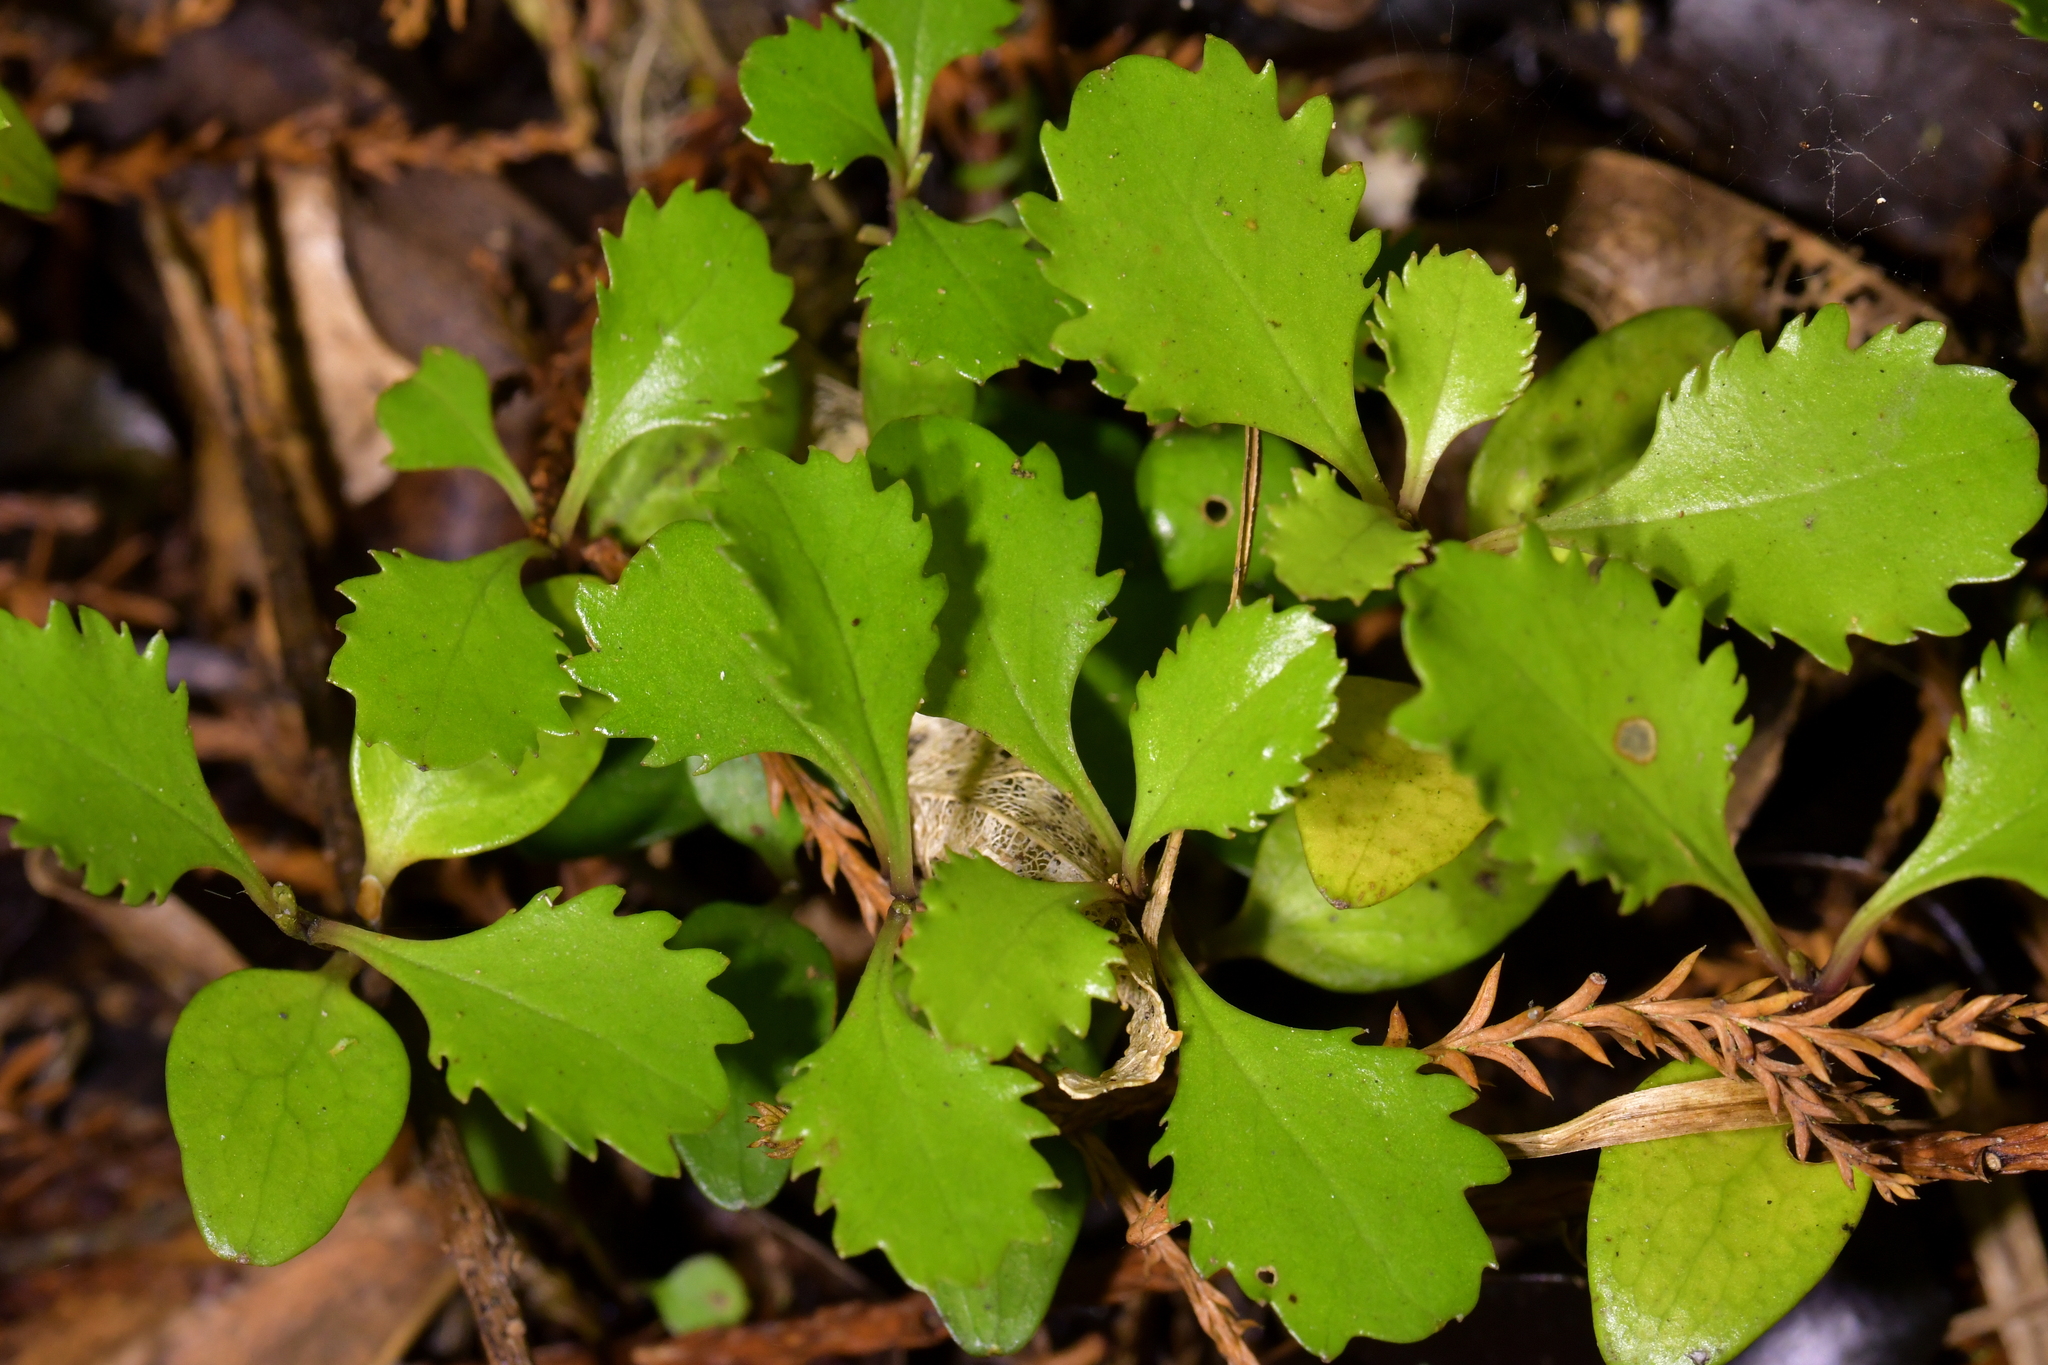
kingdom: Plantae
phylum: Tracheophyta
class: Magnoliopsida
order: Laurales
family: Atherospermataceae
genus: Laurelia
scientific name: Laurelia novae-zelandiae
